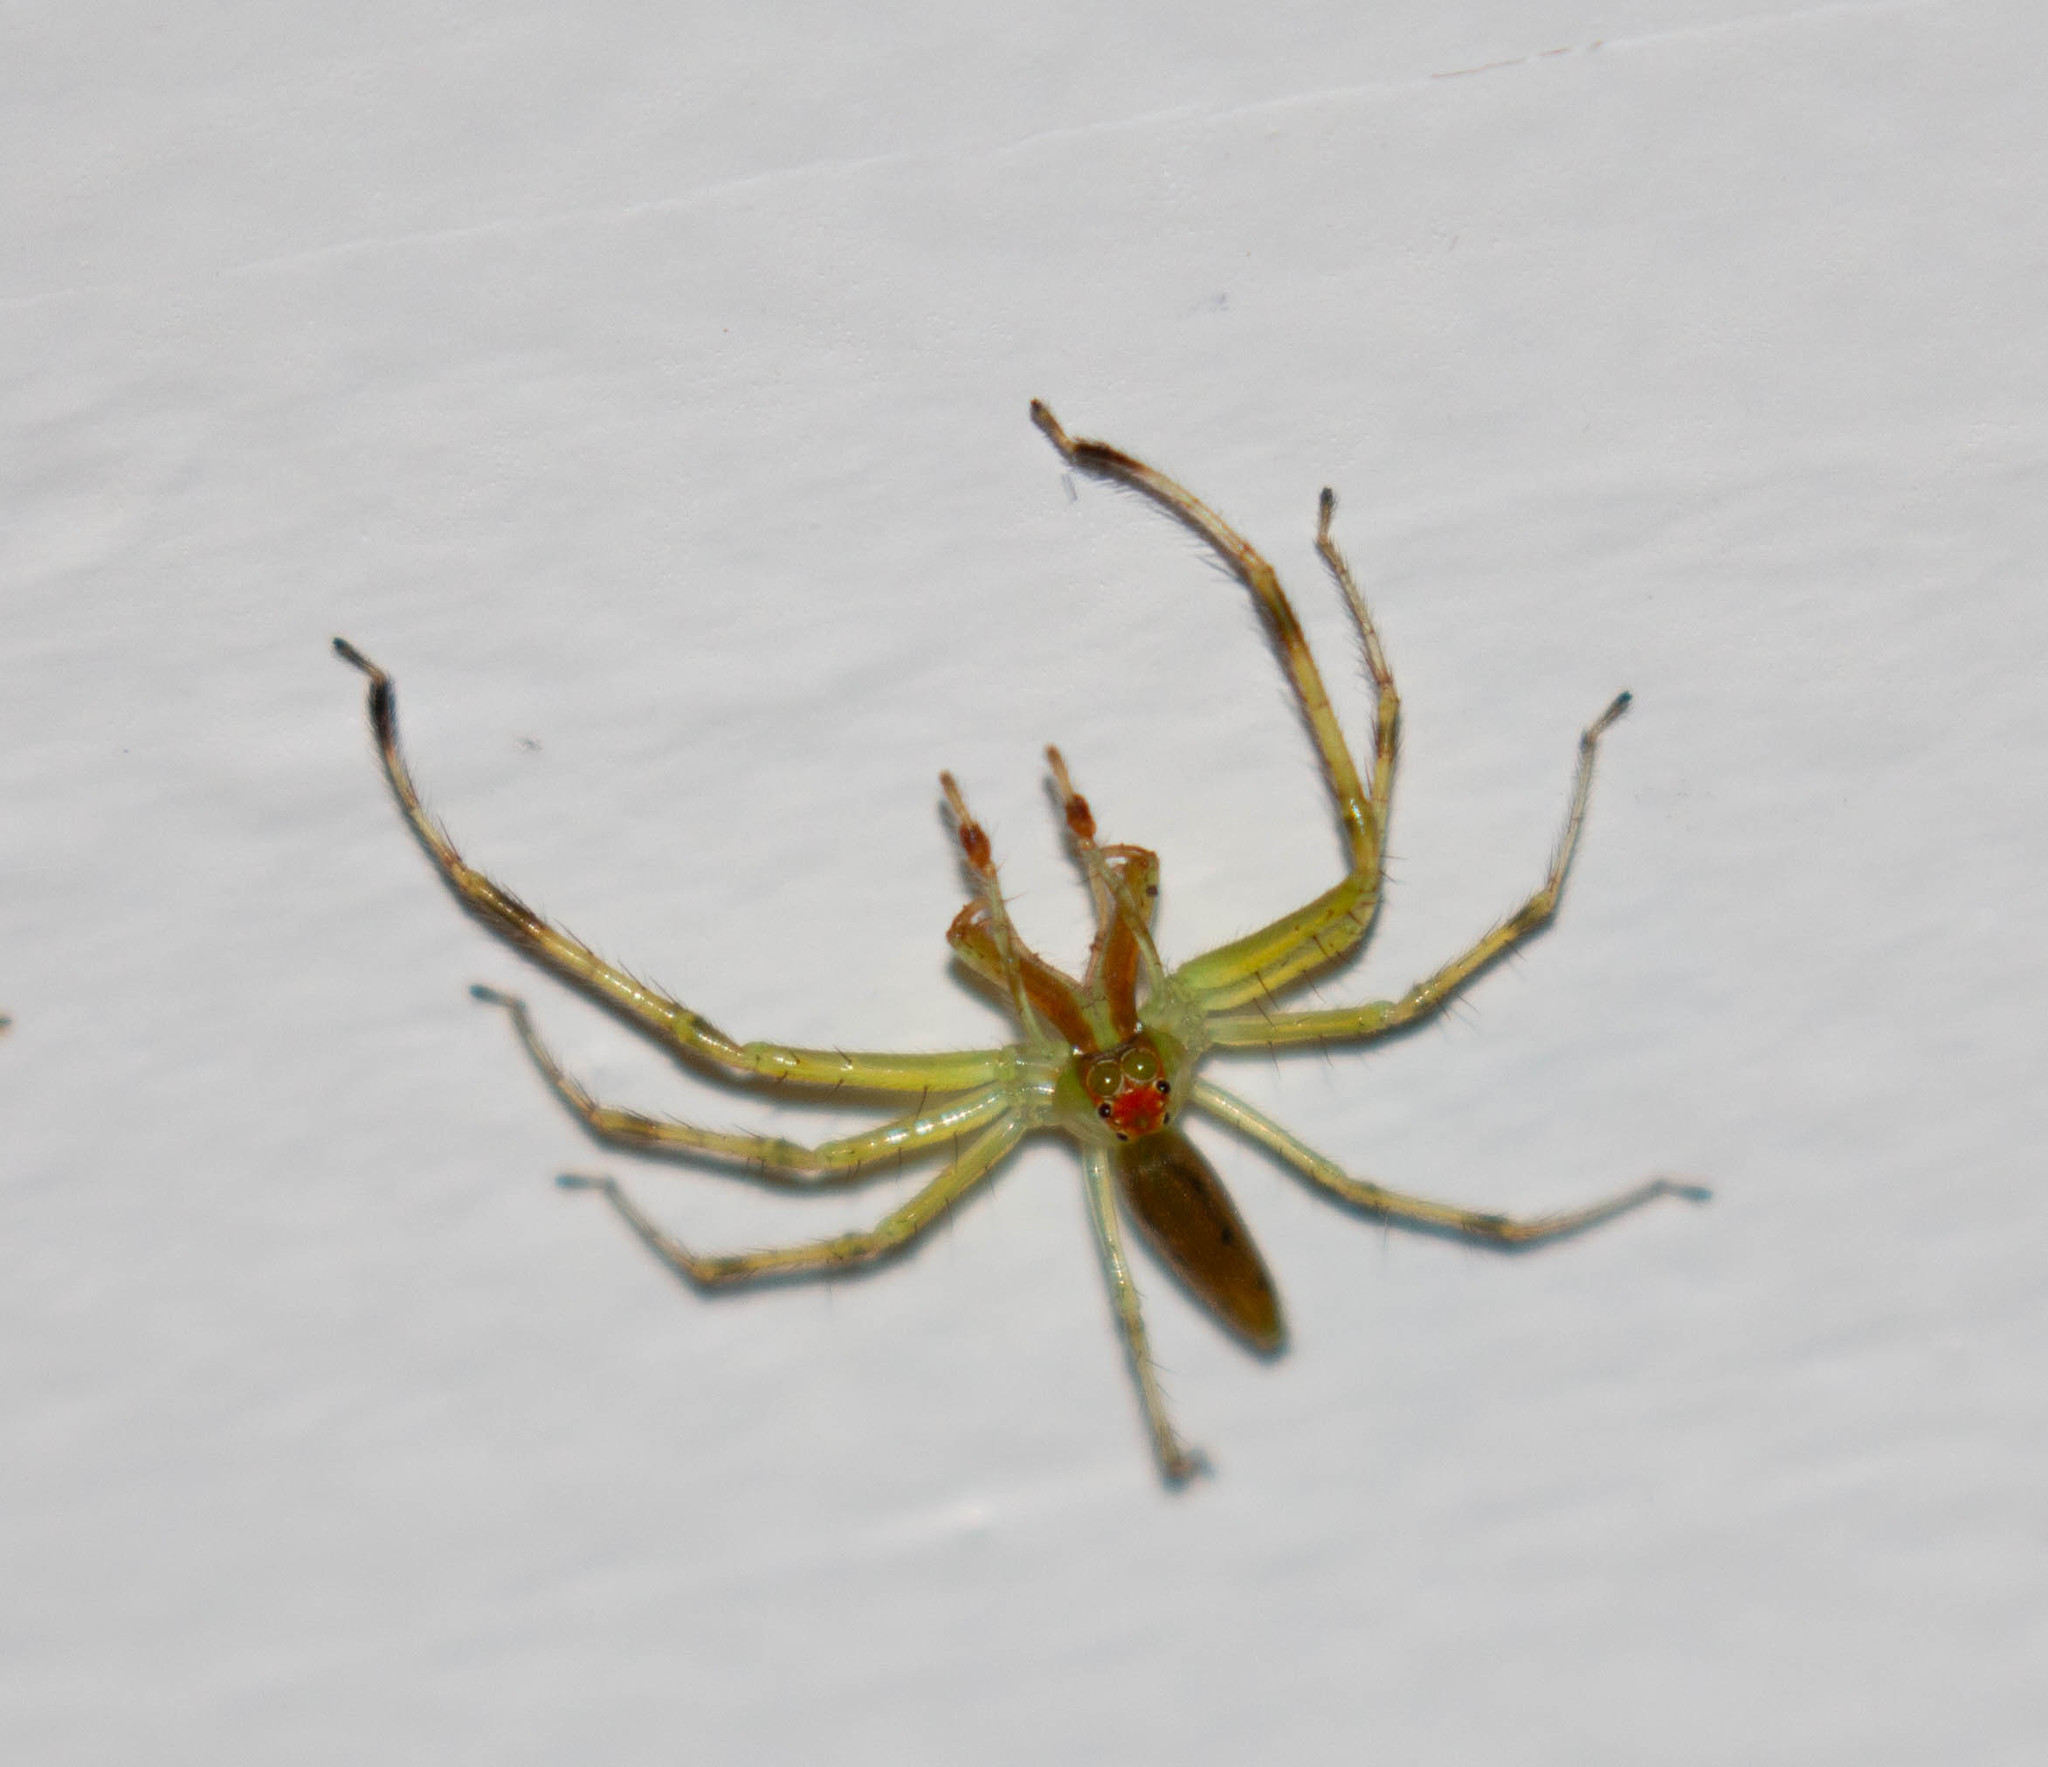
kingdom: Animalia
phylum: Arthropoda
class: Arachnida
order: Araneae
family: Salticidae
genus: Lyssomanes
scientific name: Lyssomanes viridis
